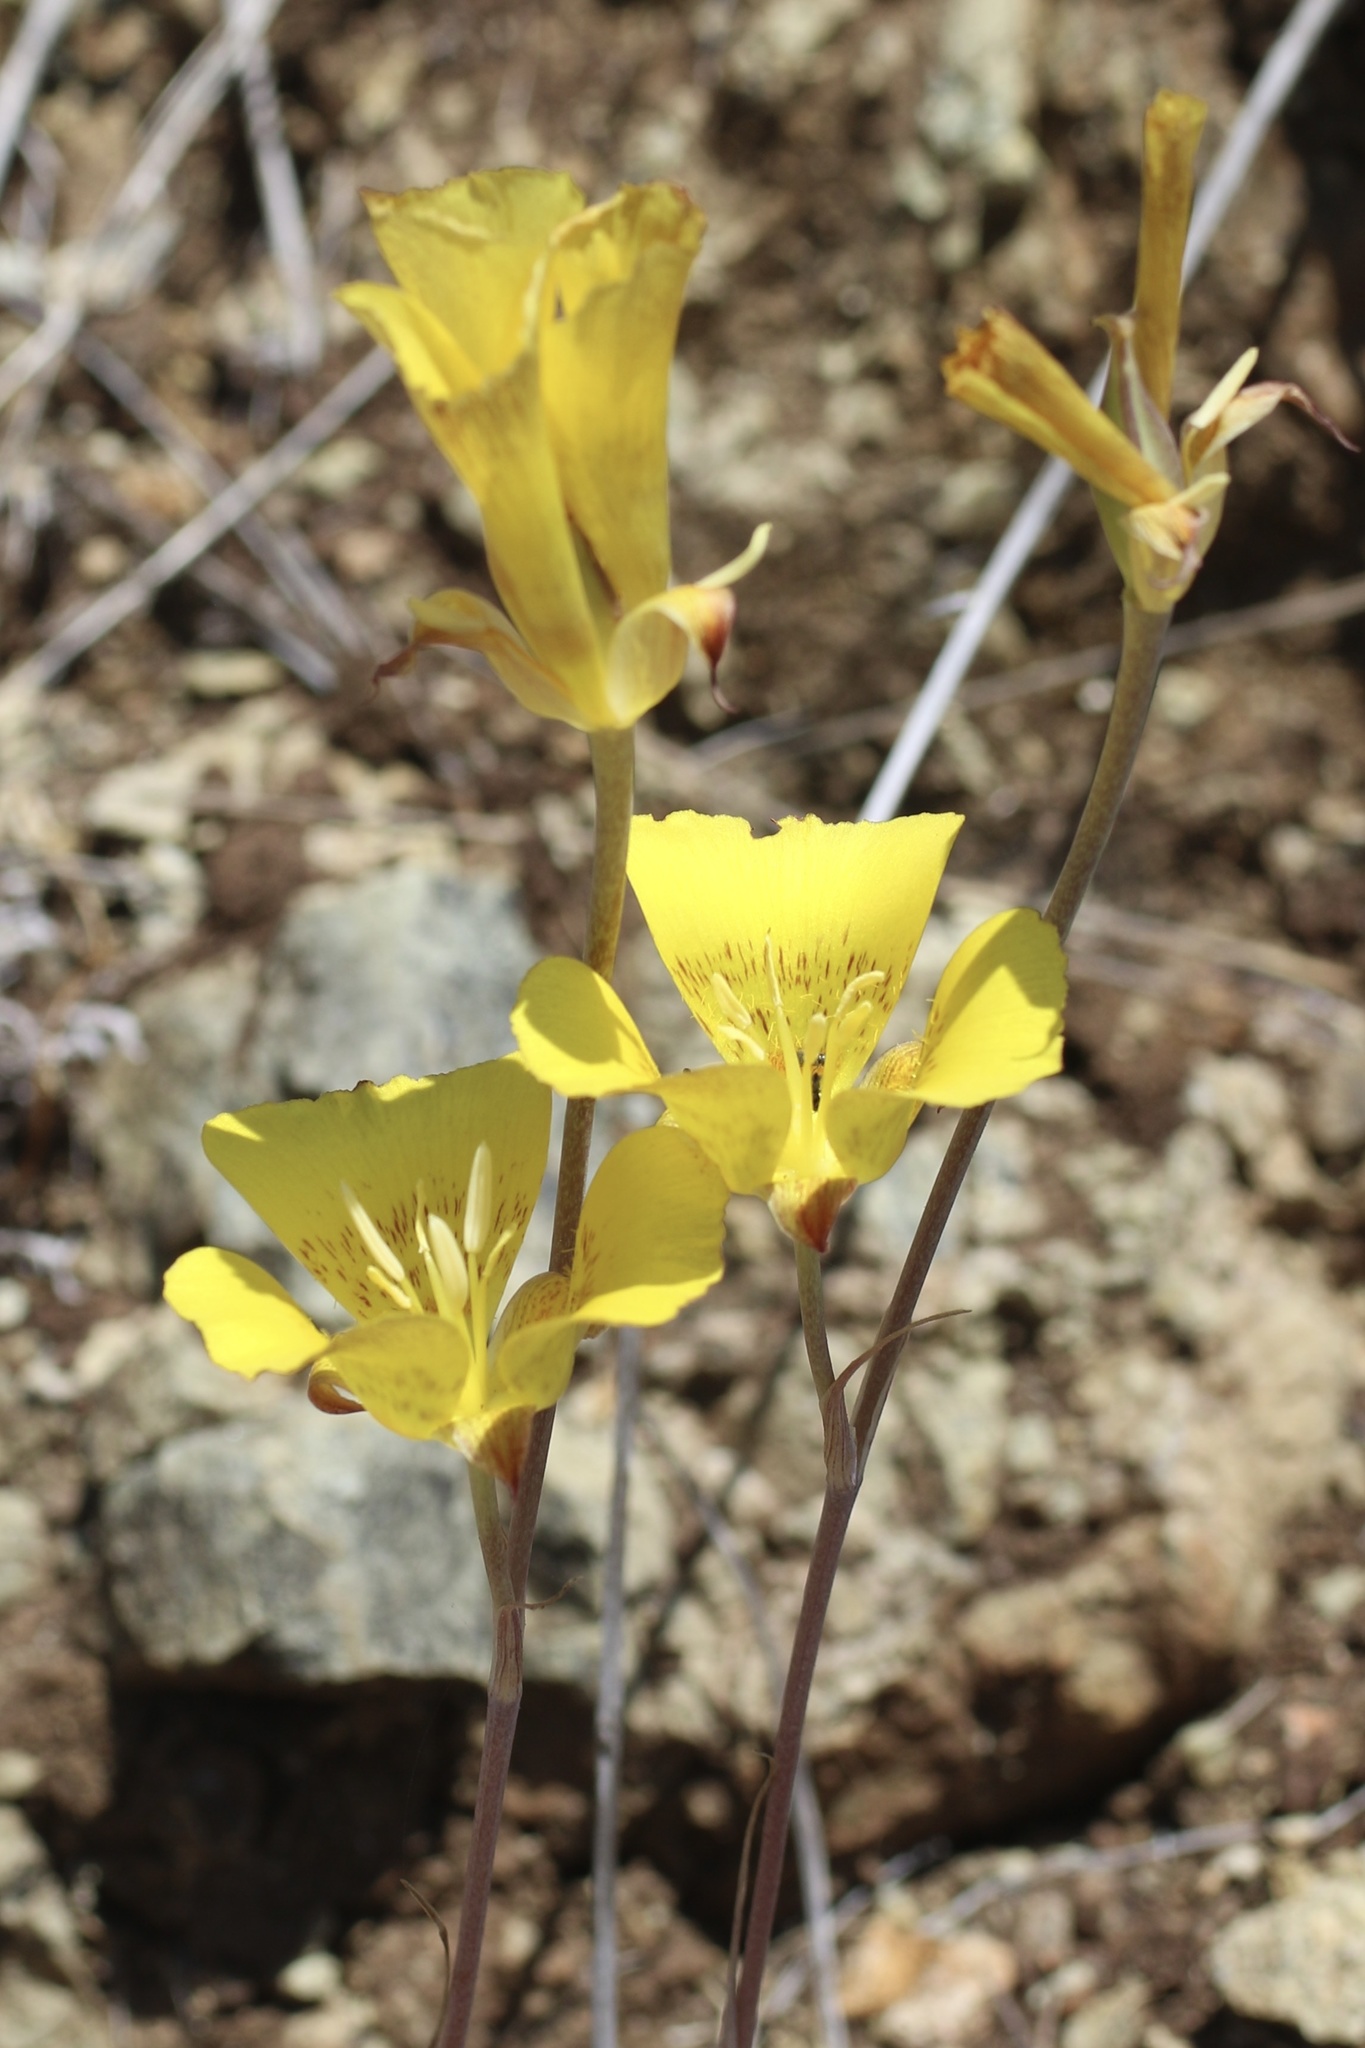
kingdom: Plantae
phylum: Tracheophyta
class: Liliopsida
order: Liliales
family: Liliaceae
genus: Calochortus
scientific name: Calochortus luteus
